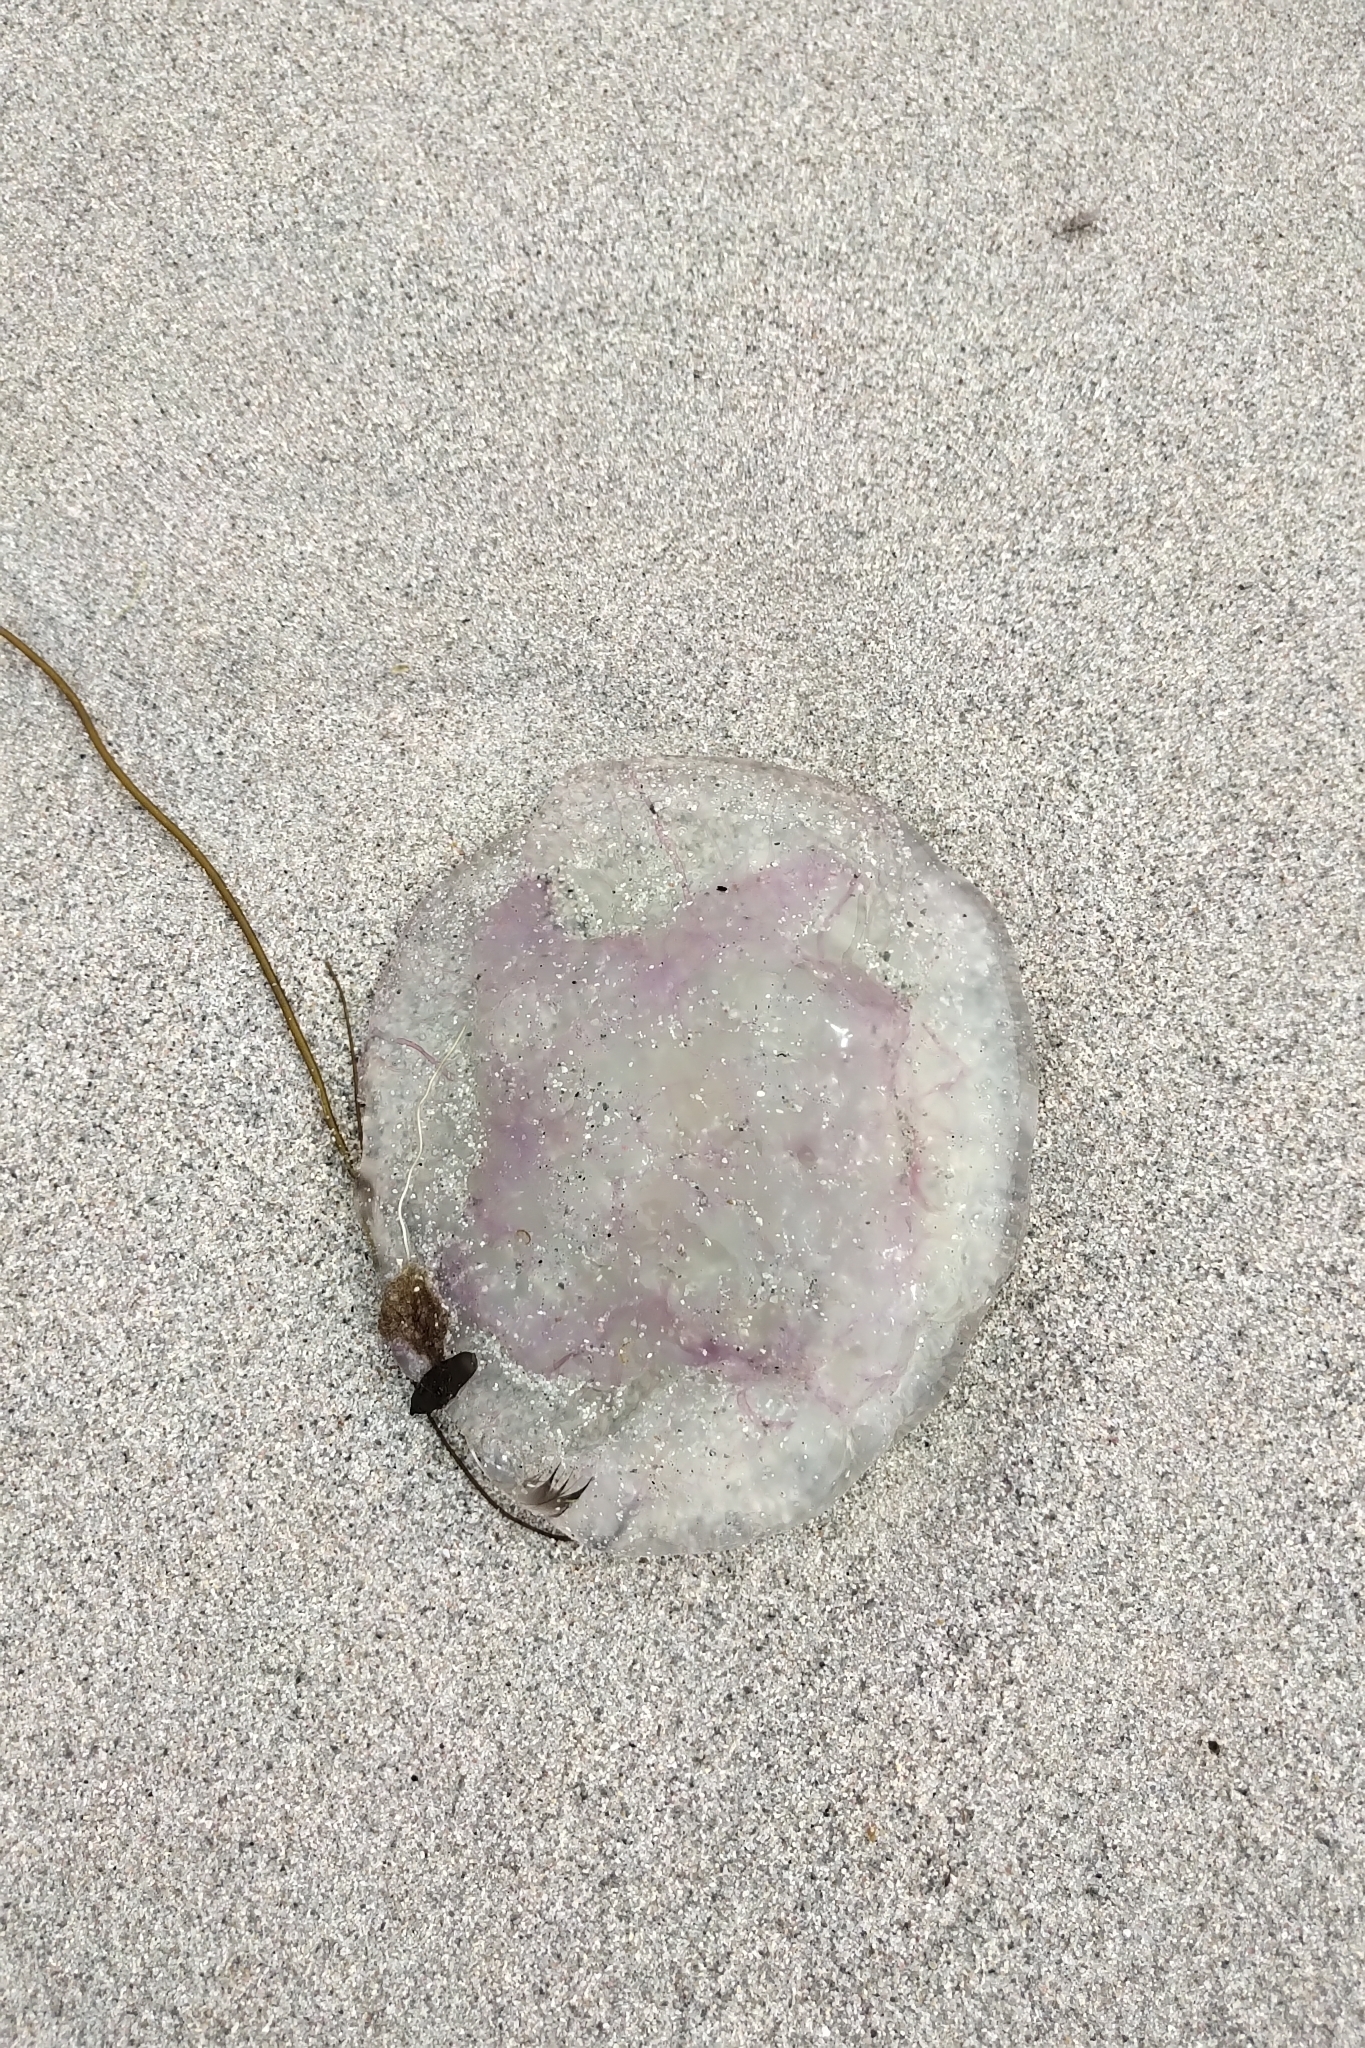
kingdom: Animalia
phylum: Cnidaria
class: Scyphozoa
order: Semaeostomeae
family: Ulmaridae
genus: Aurelia
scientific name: Aurelia aurita
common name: Moon jellyfish
